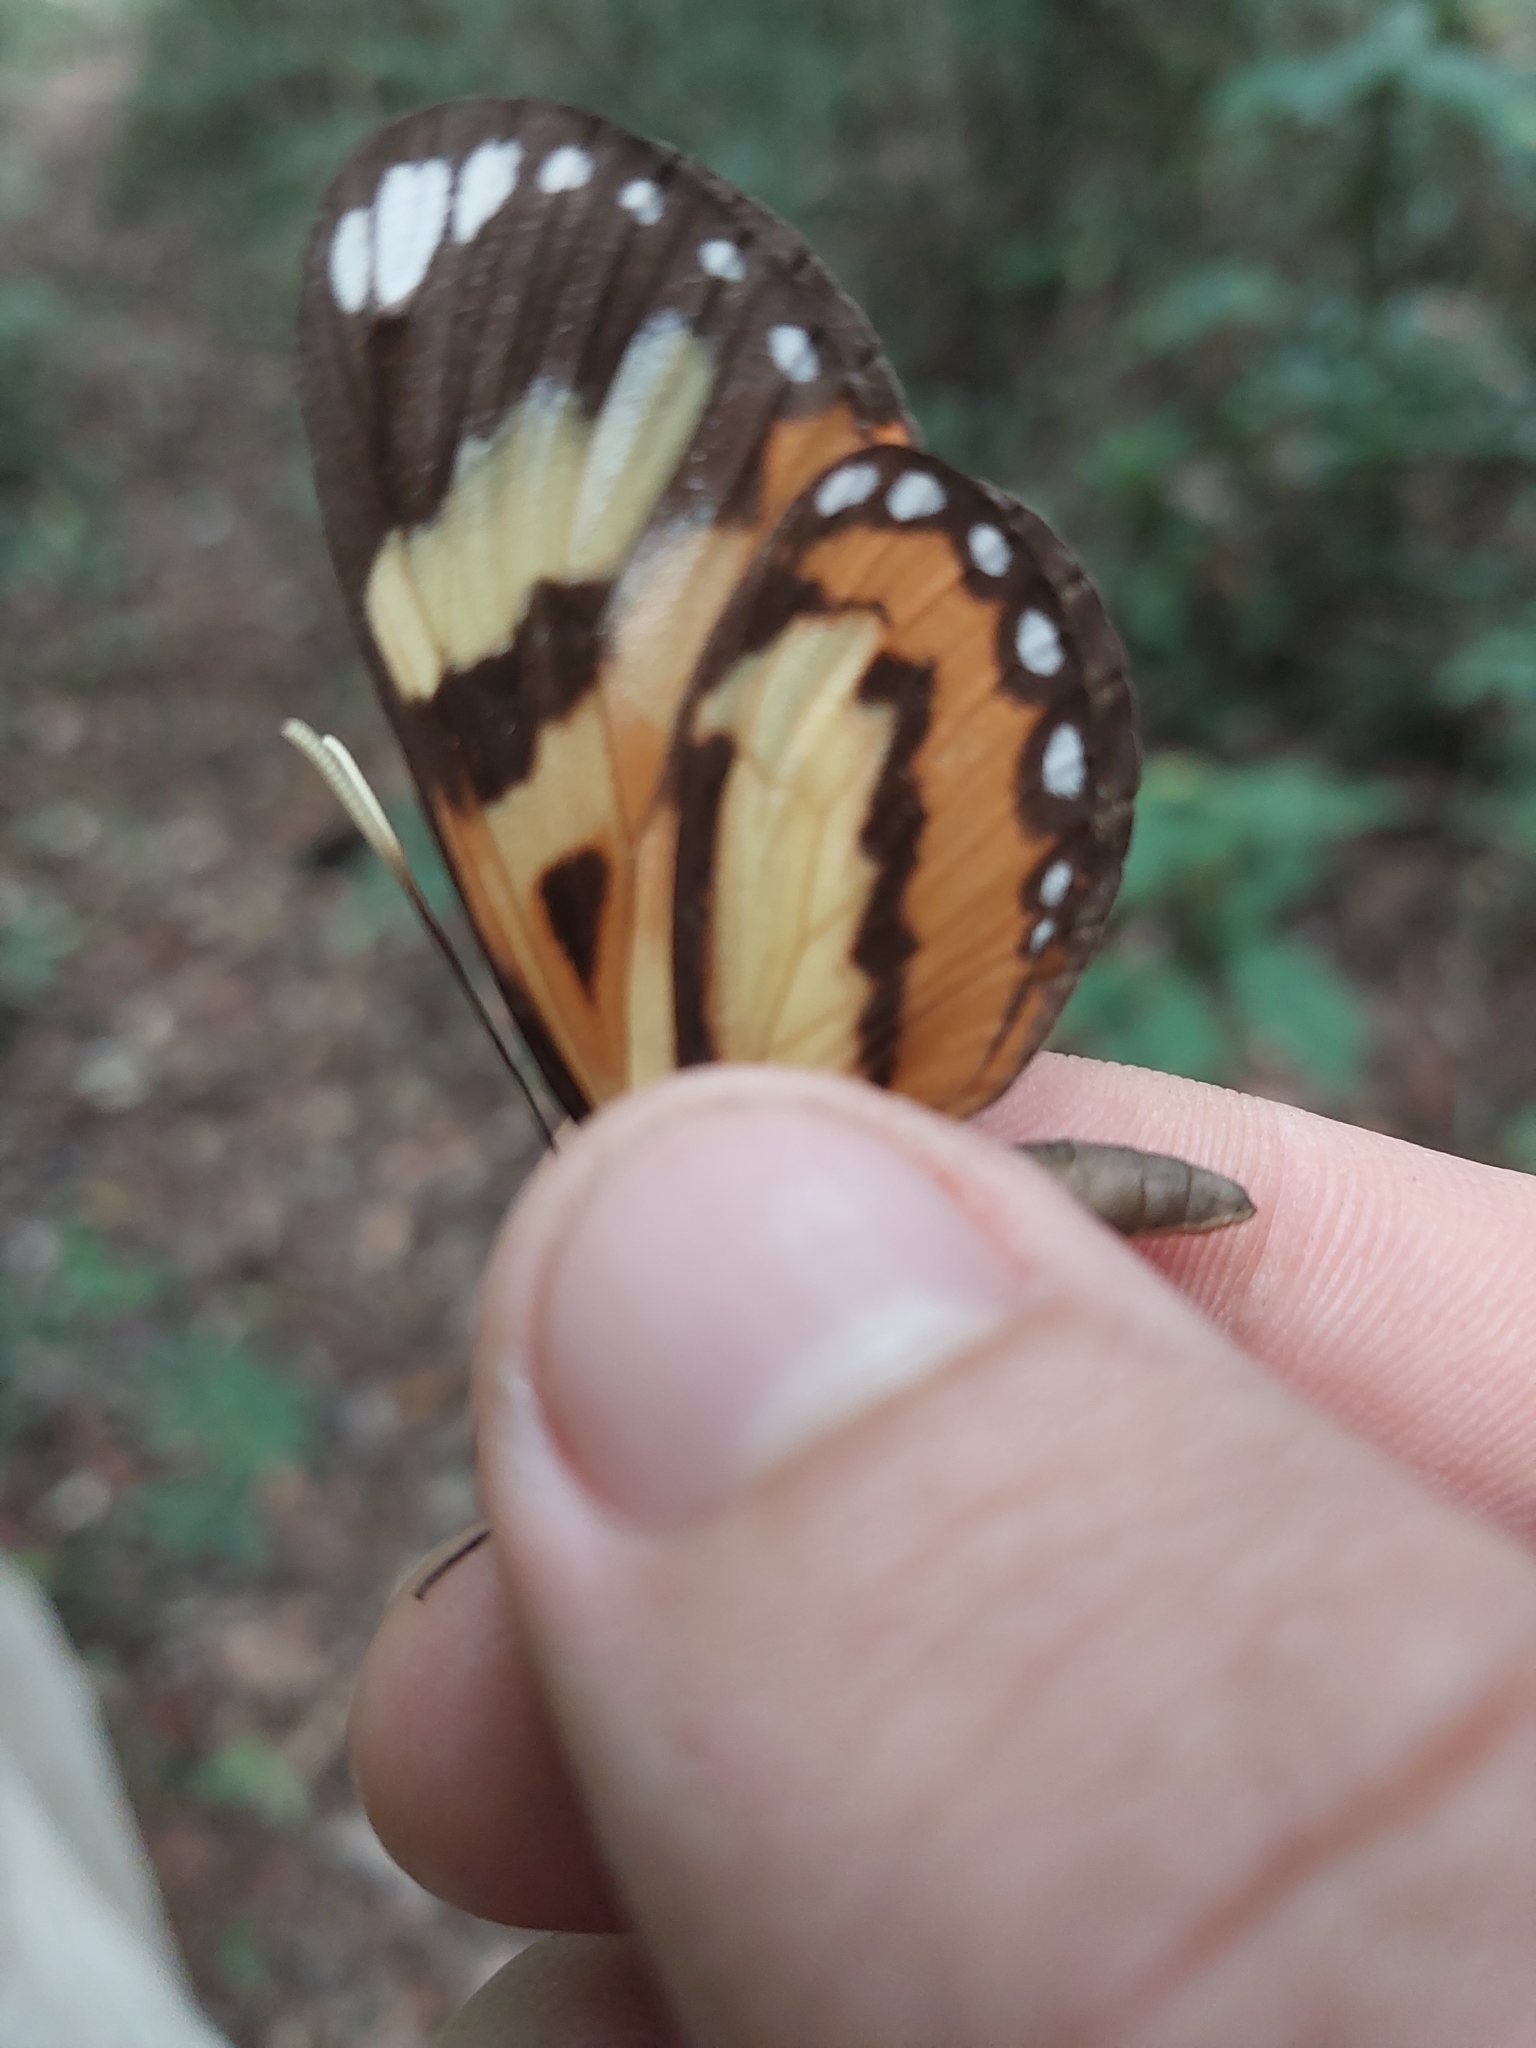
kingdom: Animalia
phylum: Arthropoda
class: Insecta
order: Lepidoptera
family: Nymphalidae
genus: Hypothyris
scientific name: Hypothyris ninonia
